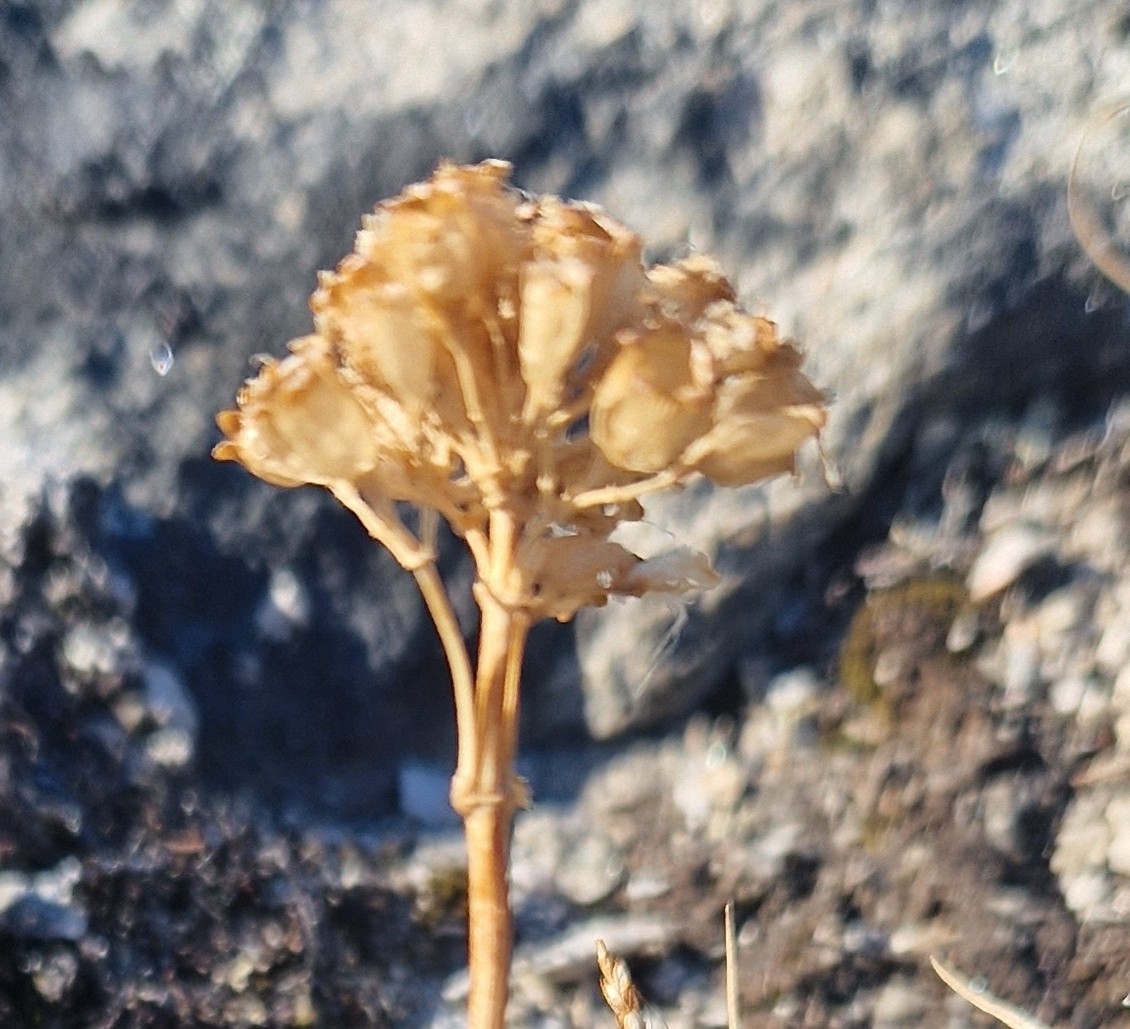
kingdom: Plantae
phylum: Tracheophyta
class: Magnoliopsida
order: Caryophyllales
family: Caryophyllaceae
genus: Viscaria
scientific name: Viscaria alpina
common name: Alpine campion
